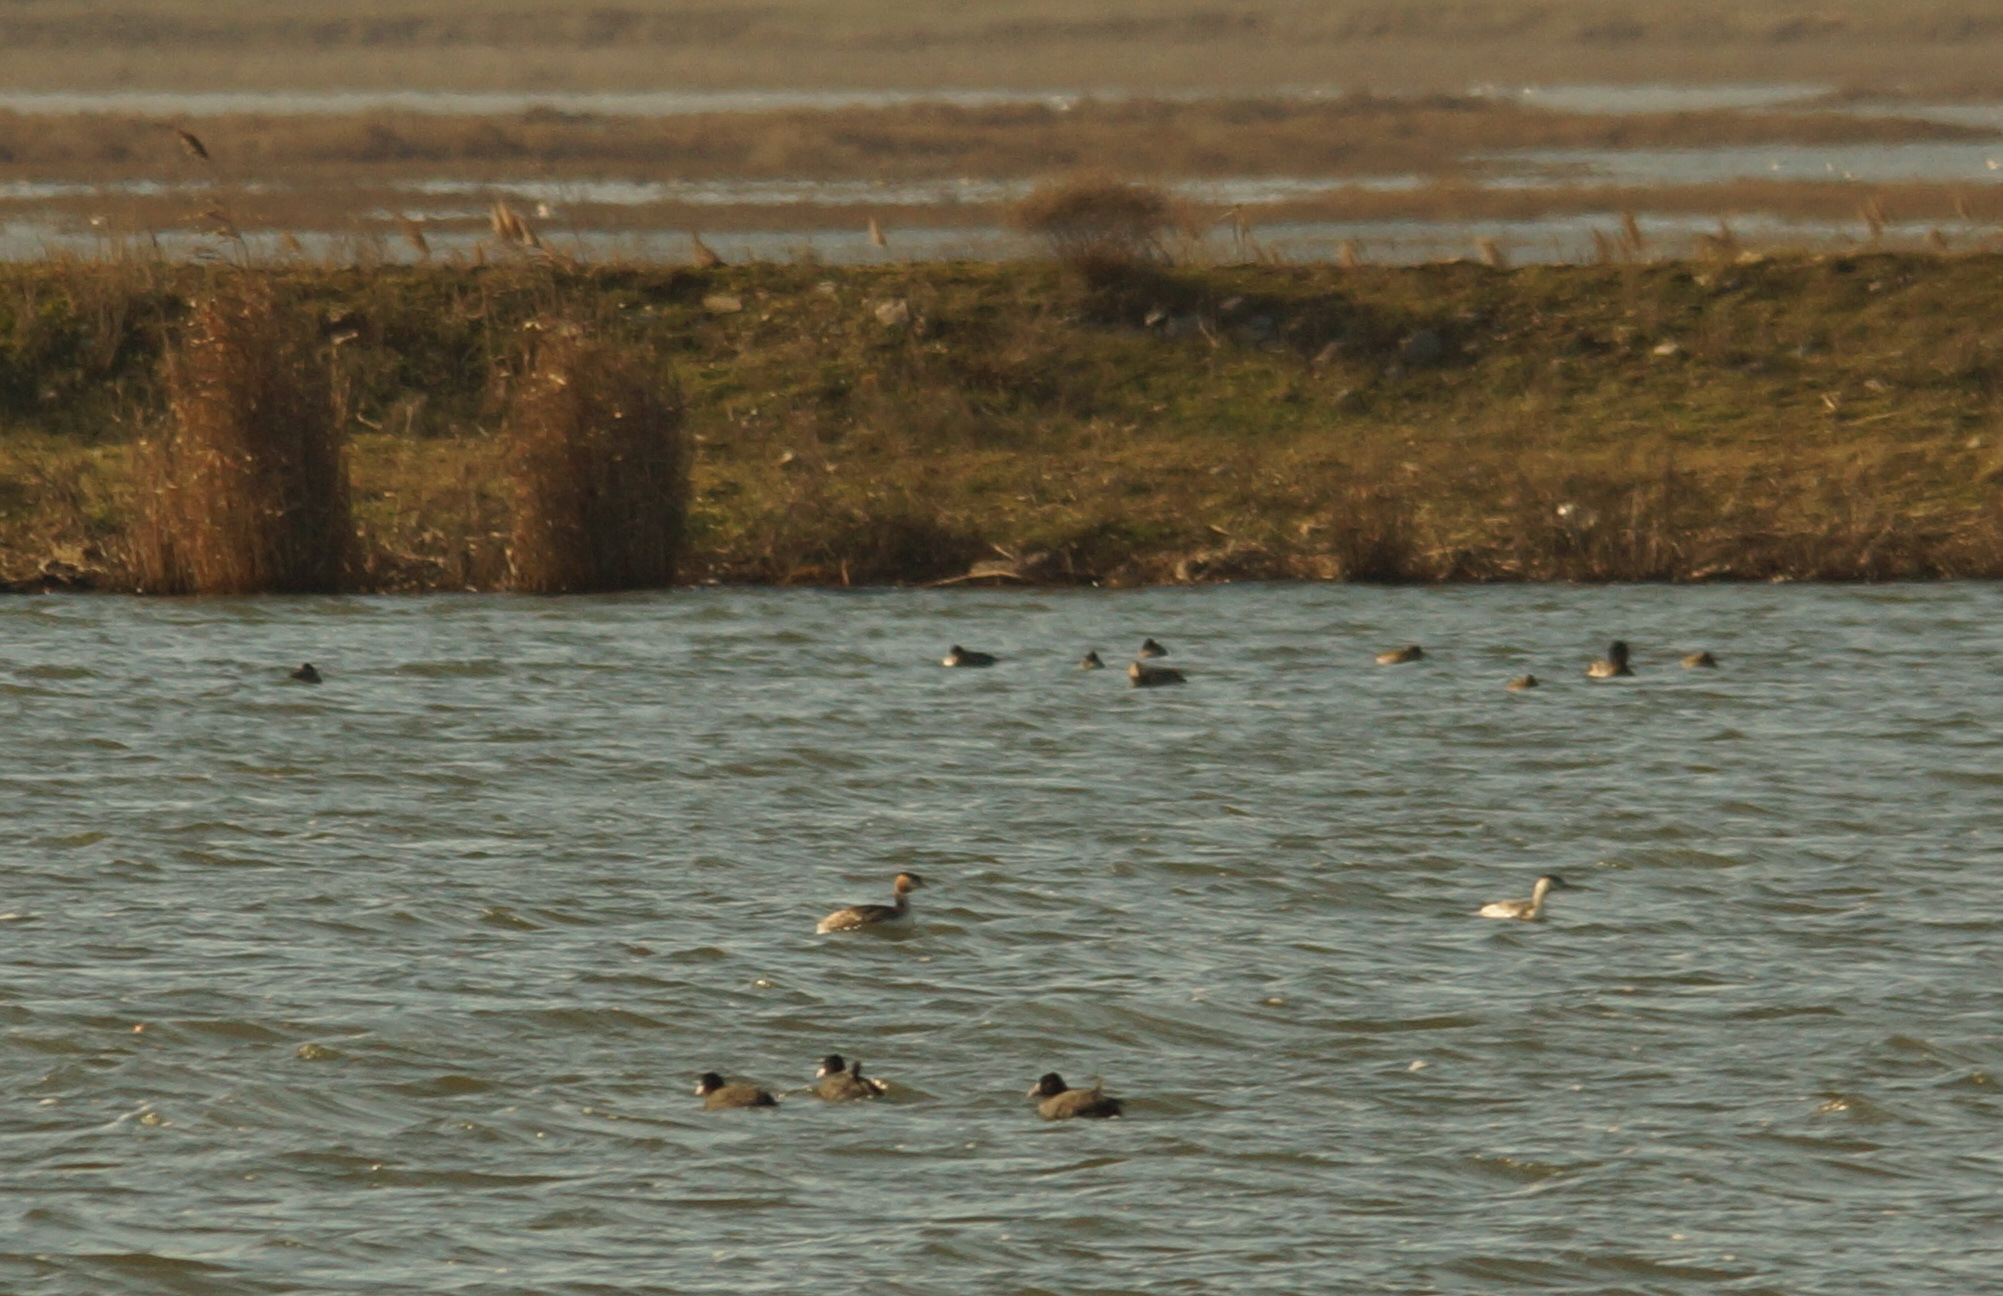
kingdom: Animalia
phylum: Chordata
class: Aves
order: Podicipediformes
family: Podicipedidae
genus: Podiceps
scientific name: Podiceps cristatus
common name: Great crested grebe
